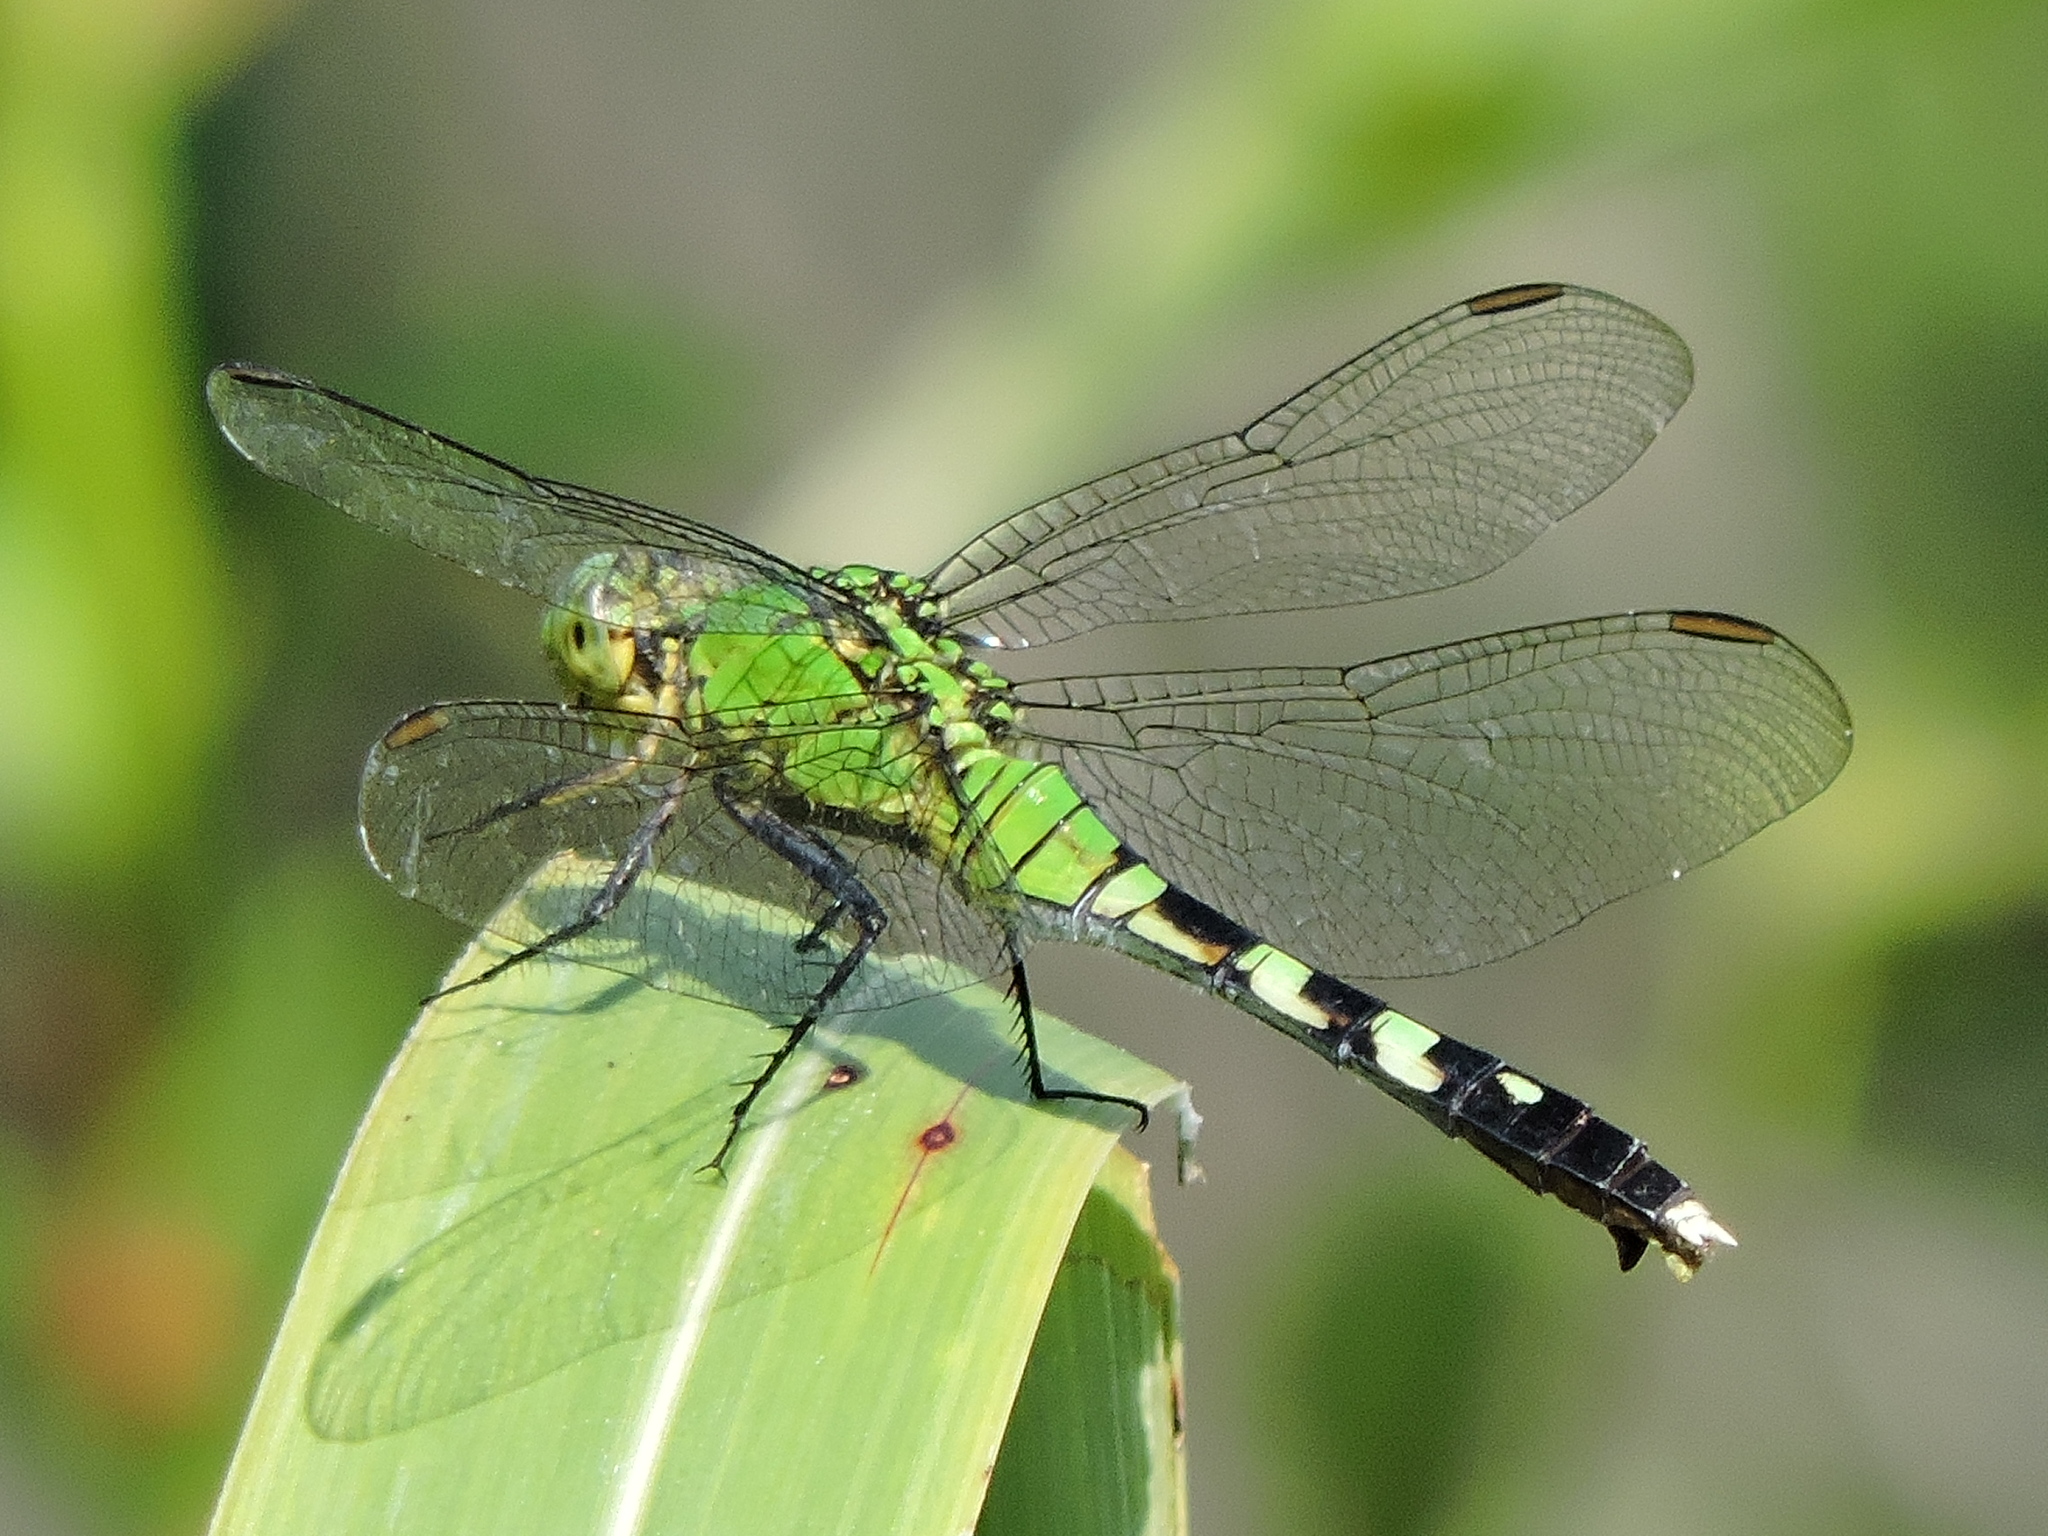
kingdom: Animalia
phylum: Arthropoda
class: Insecta
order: Odonata
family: Libellulidae
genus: Erythemis
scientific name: Erythemis simplicicollis
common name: Eastern pondhawk
